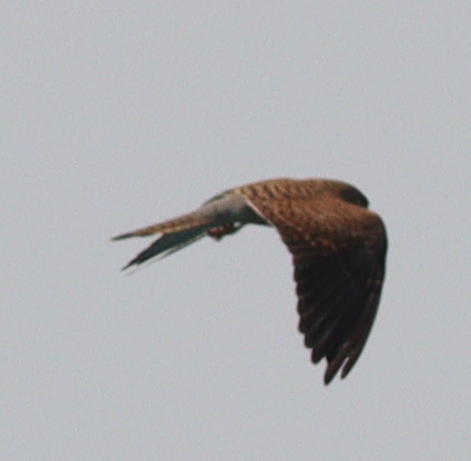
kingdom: Animalia
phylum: Chordata
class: Aves
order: Falconiformes
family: Falconidae
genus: Falco
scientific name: Falco tinnunculus
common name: Common kestrel
